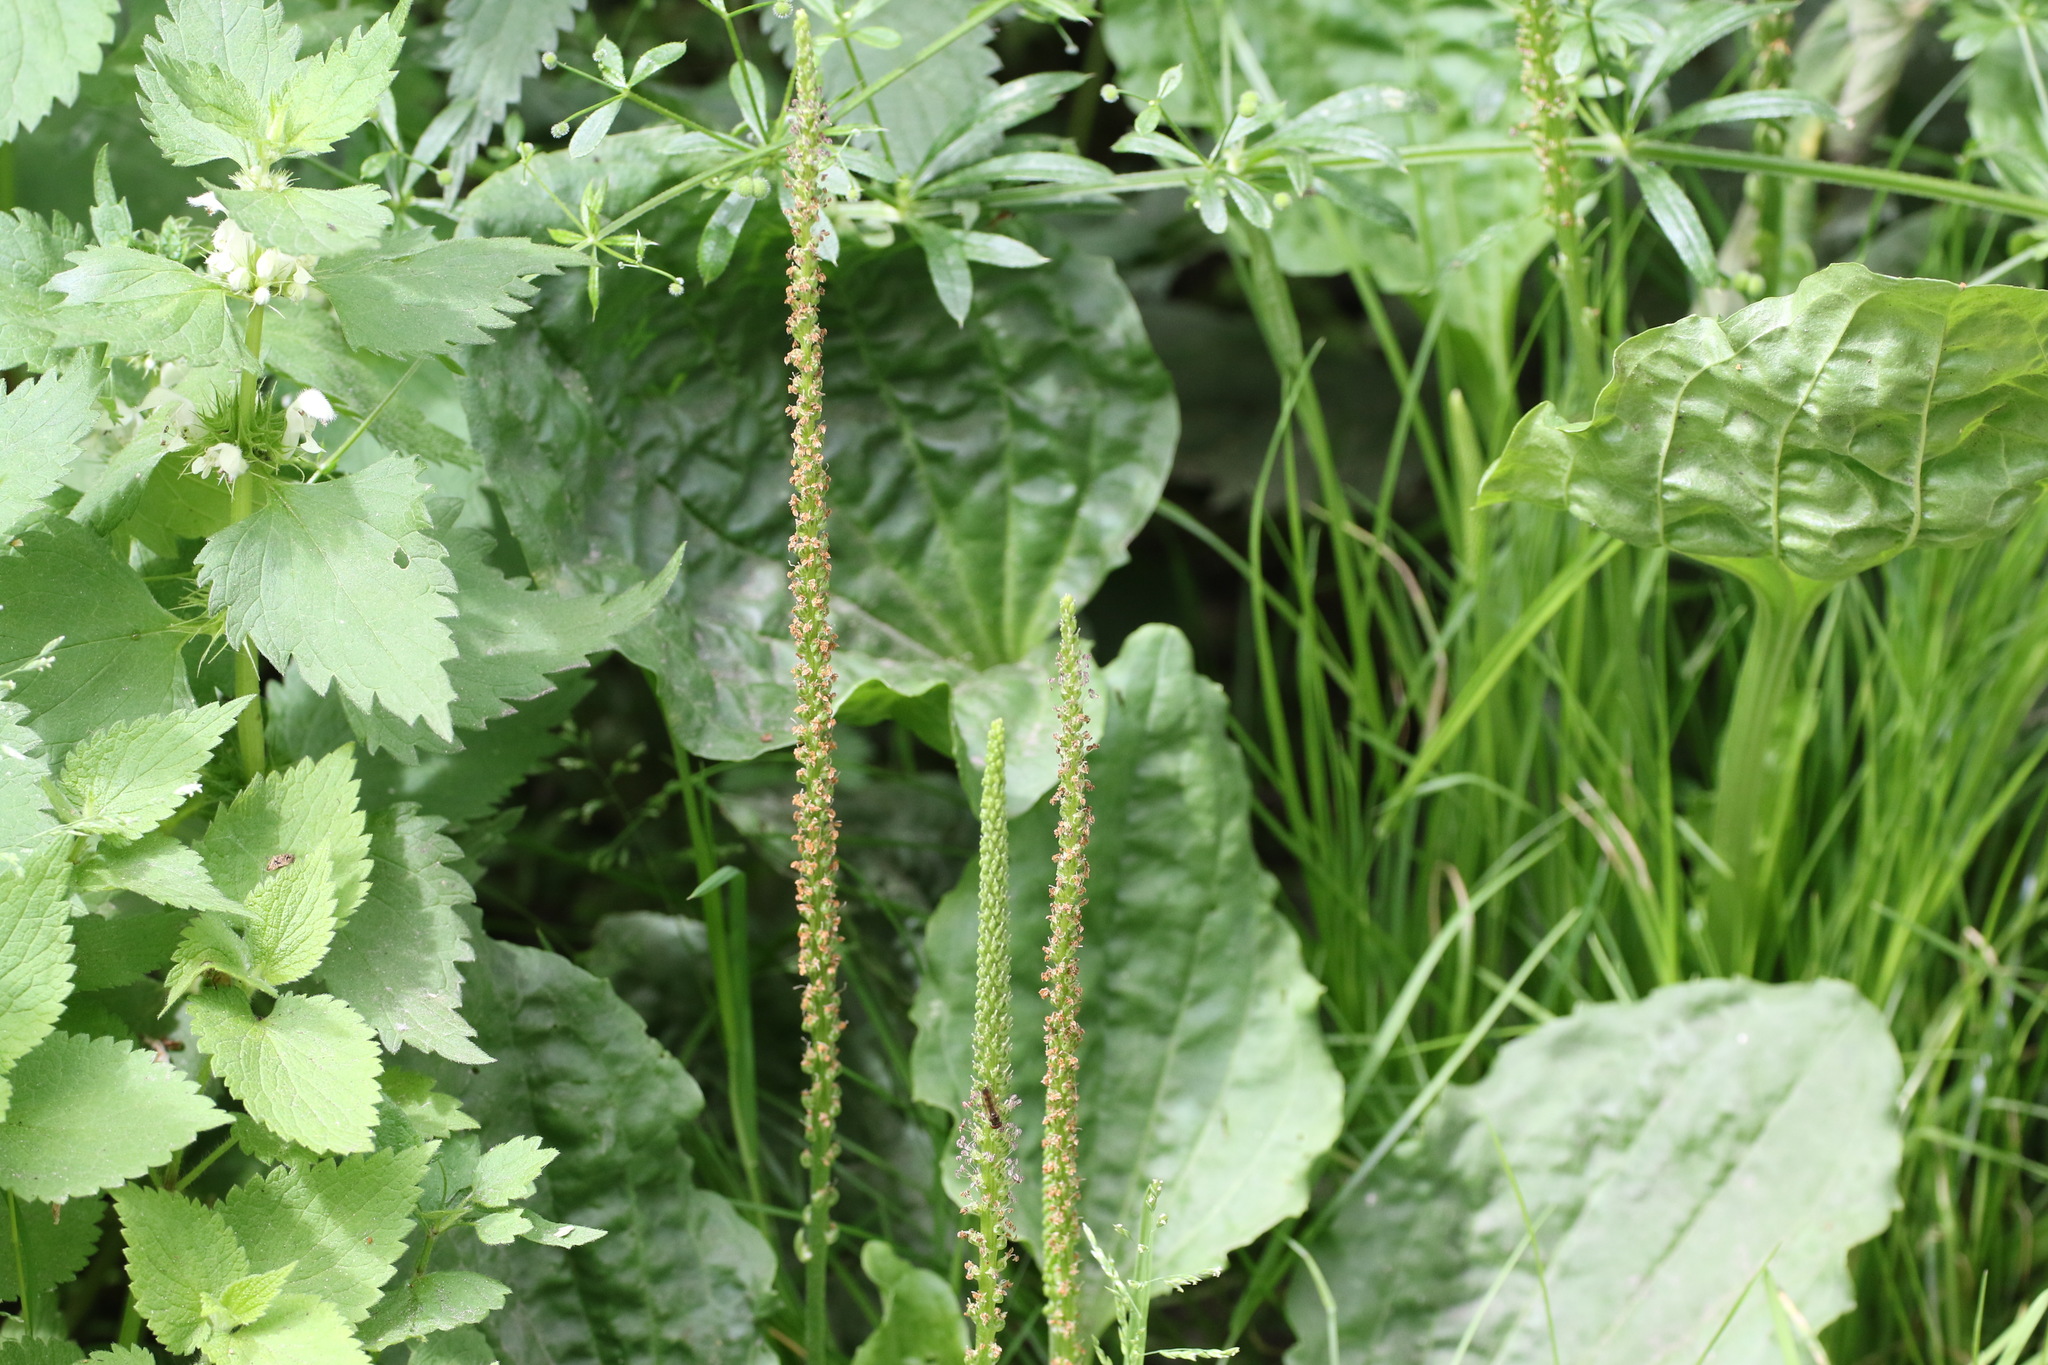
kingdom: Plantae
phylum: Tracheophyta
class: Magnoliopsida
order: Lamiales
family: Plantaginaceae
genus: Plantago
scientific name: Plantago major
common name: Common plantain
